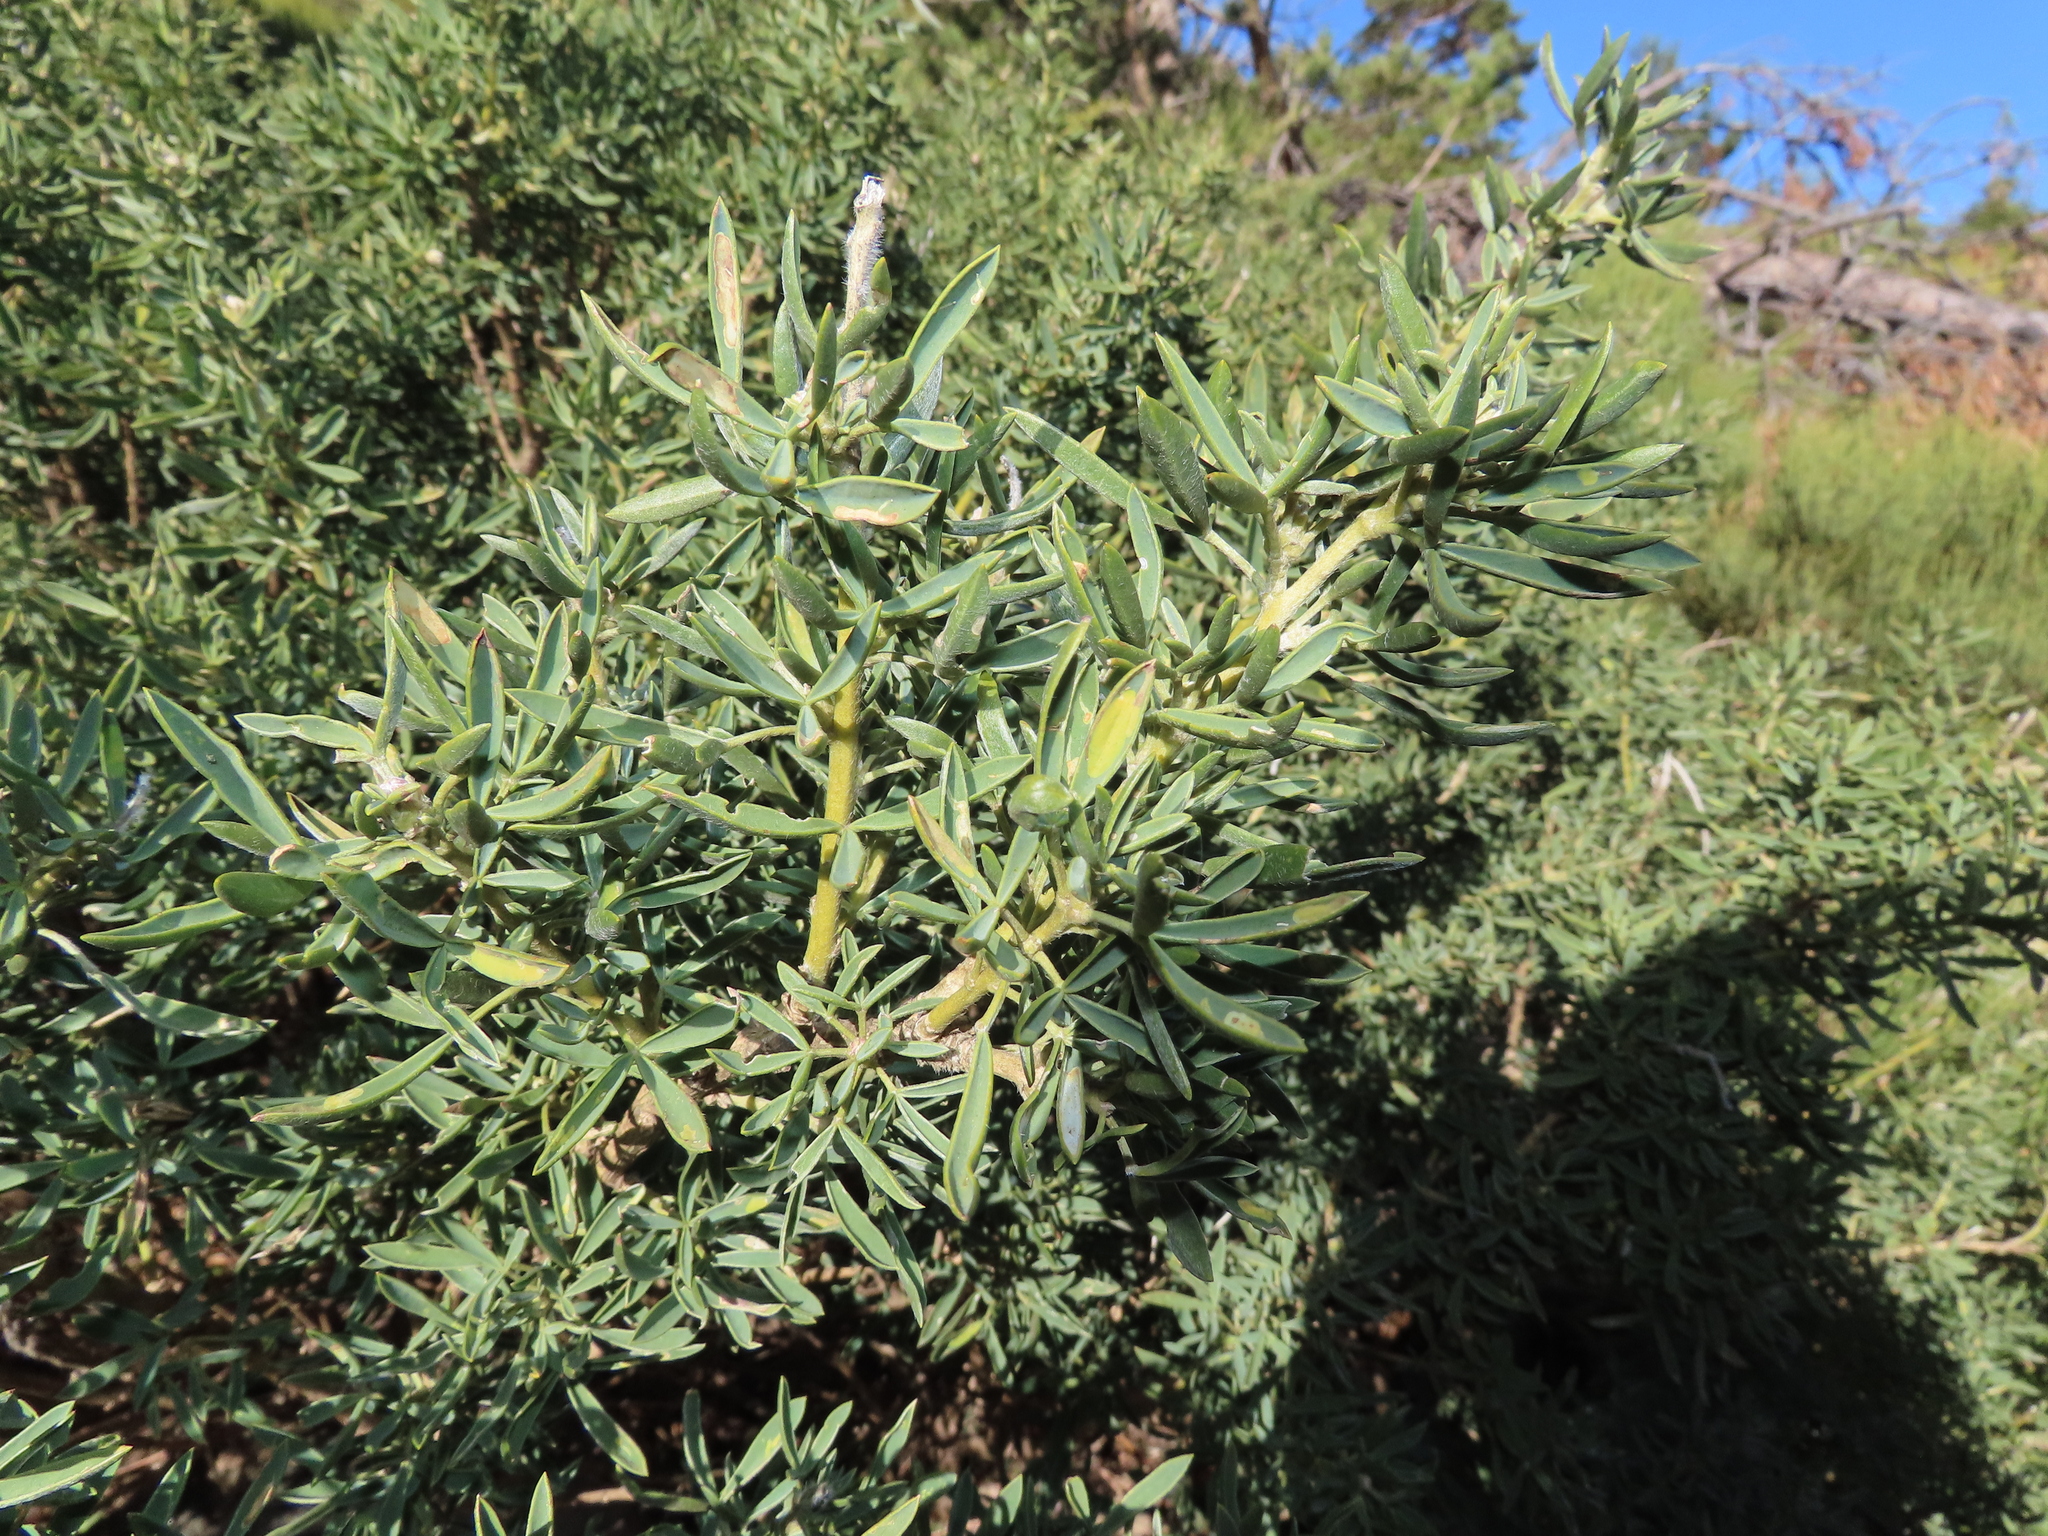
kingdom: Plantae
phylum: Tracheophyta
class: Magnoliopsida
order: Fabales
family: Fabaceae
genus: Adenocarpus
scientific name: Adenocarpus hispanicus
